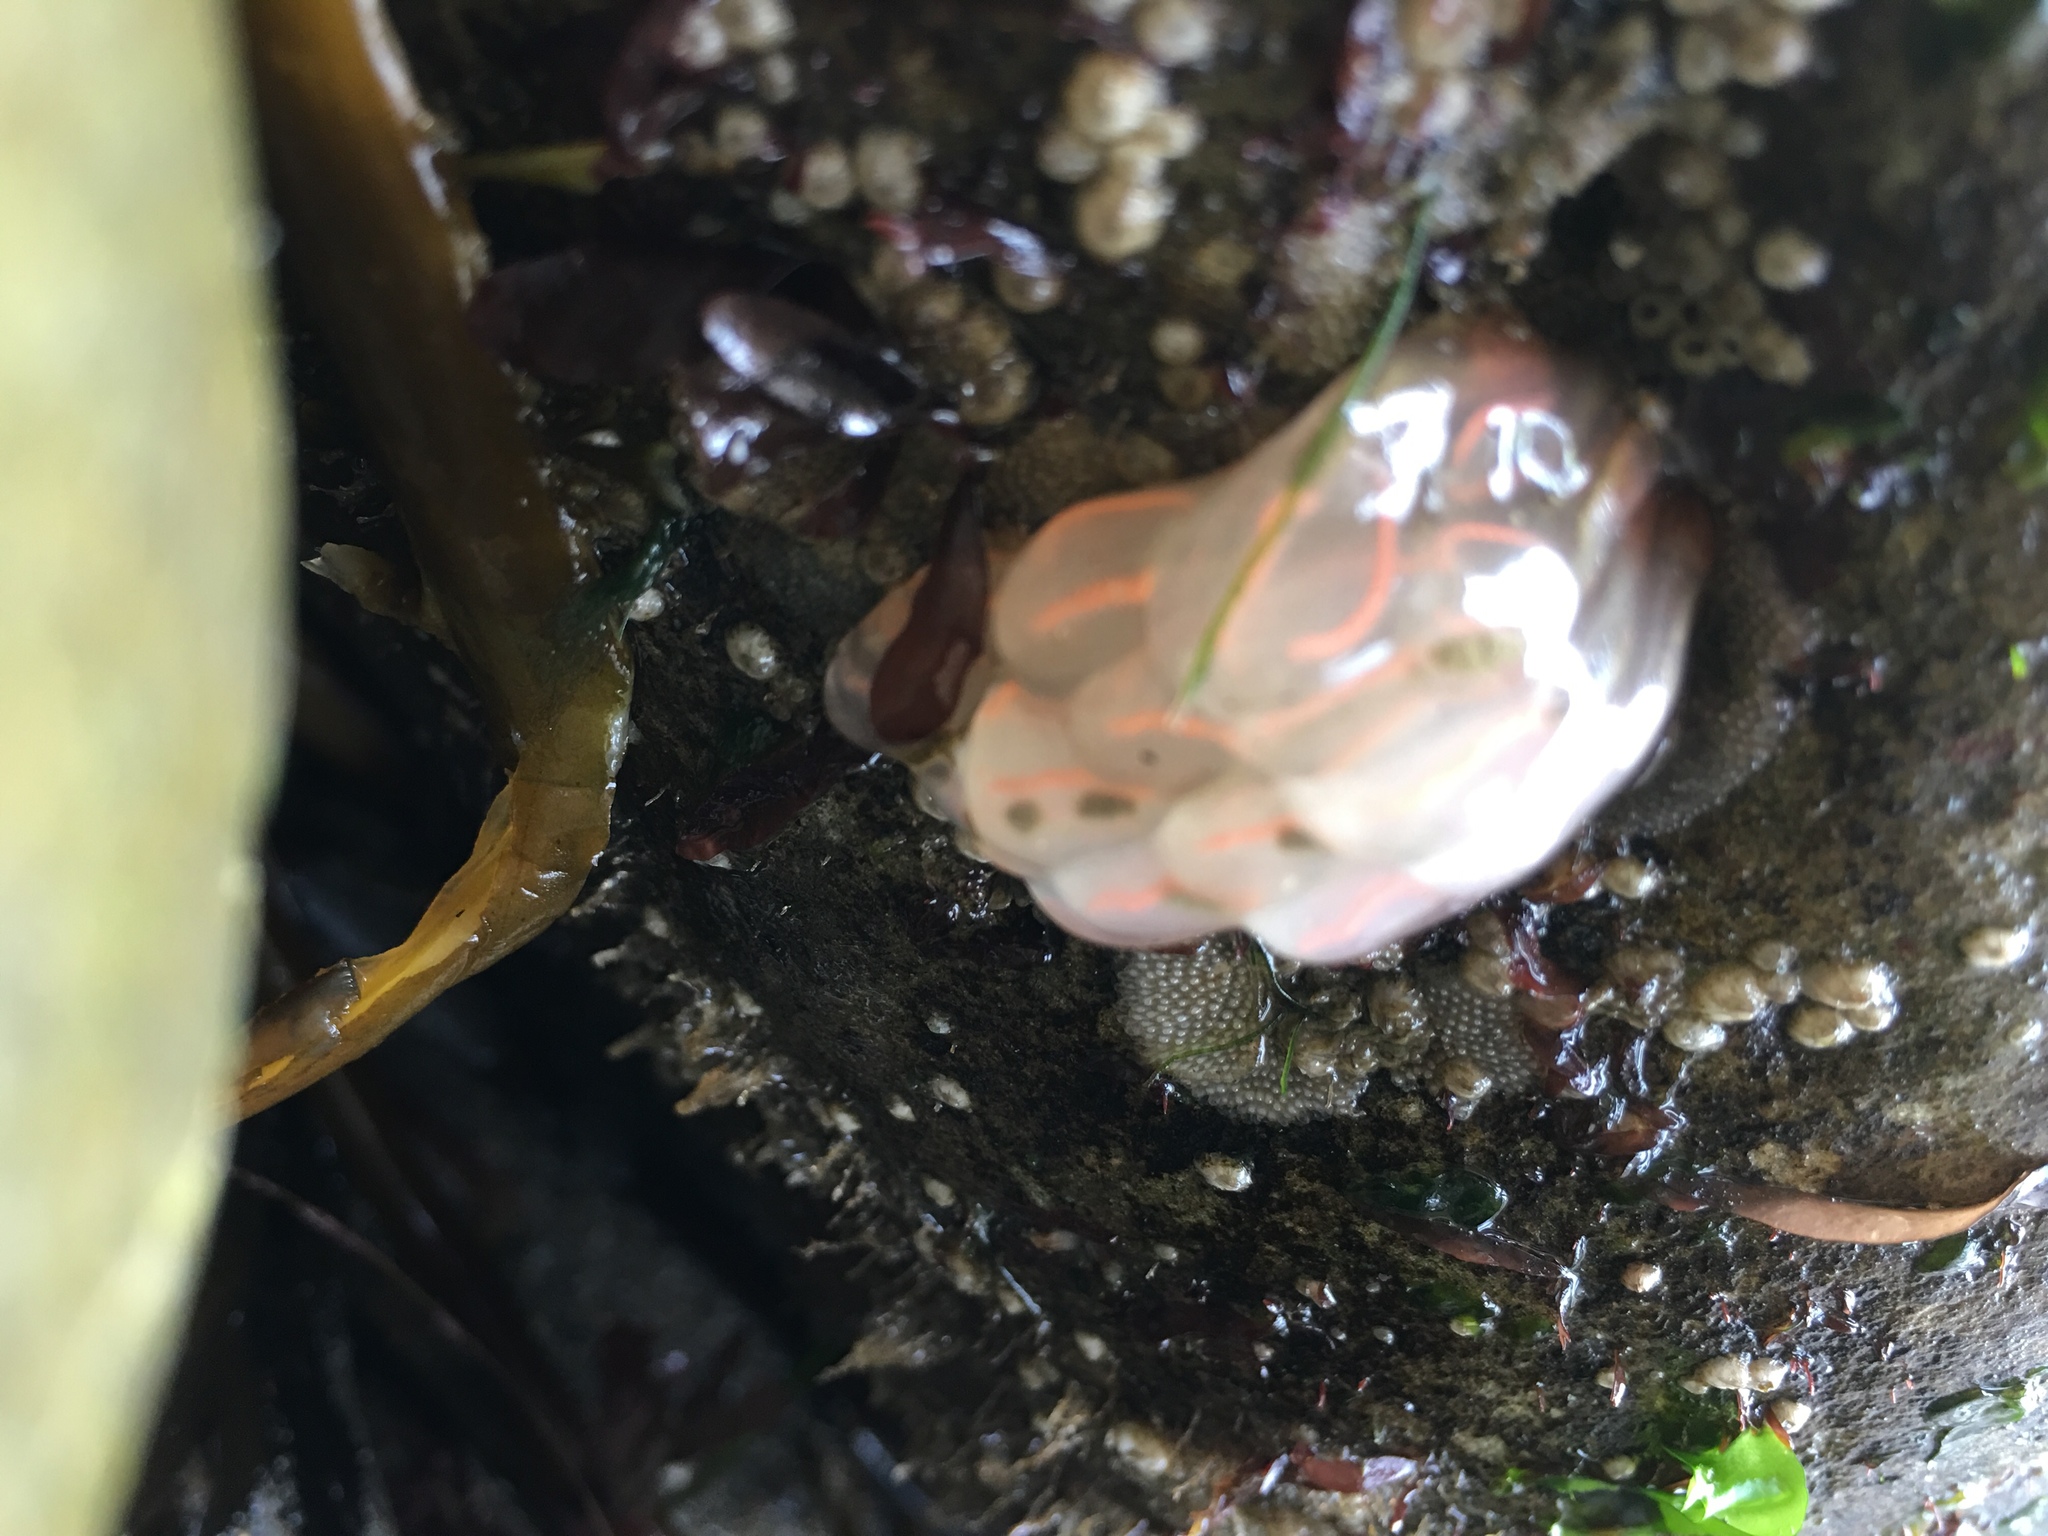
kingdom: Animalia
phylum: Chordata
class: Ascidiacea
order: Aplousobranchia
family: Clavelinidae
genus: Clavelina
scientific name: Clavelina huntsmani
